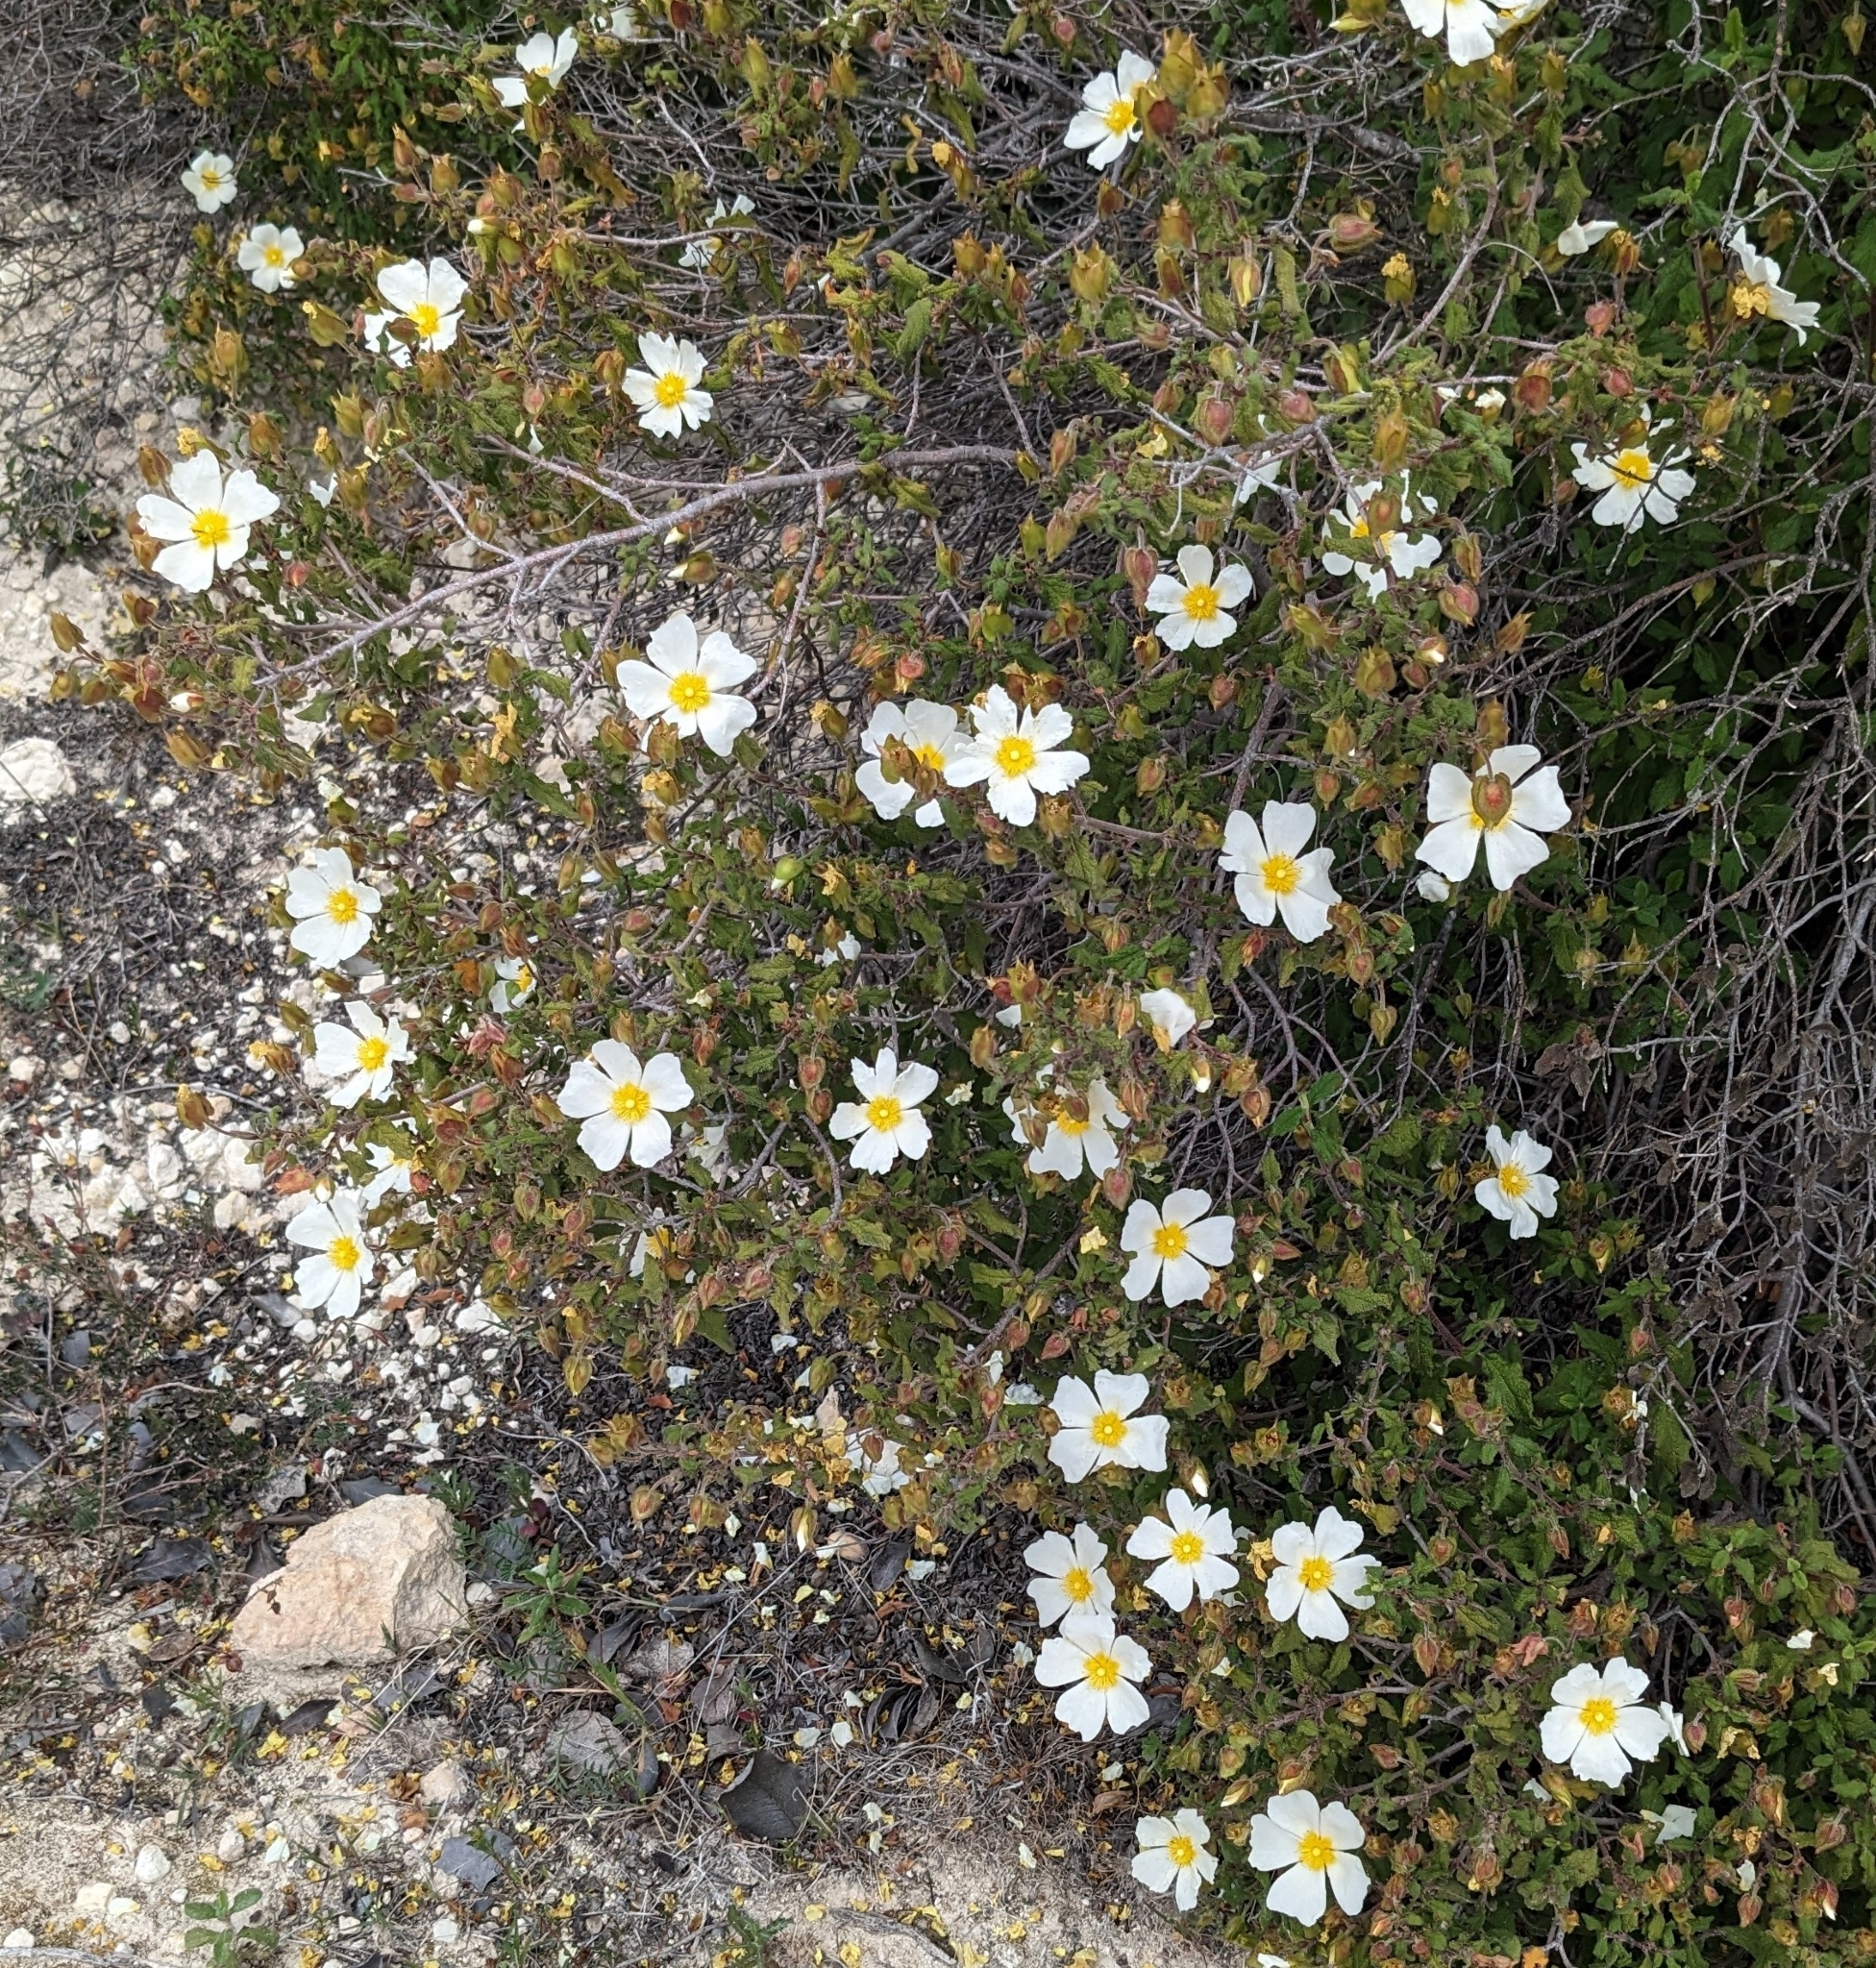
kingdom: Plantae
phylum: Tracheophyta
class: Magnoliopsida
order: Malvales
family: Cistaceae
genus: Cistus
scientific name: Cistus salviifolius
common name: Salvia cistus
